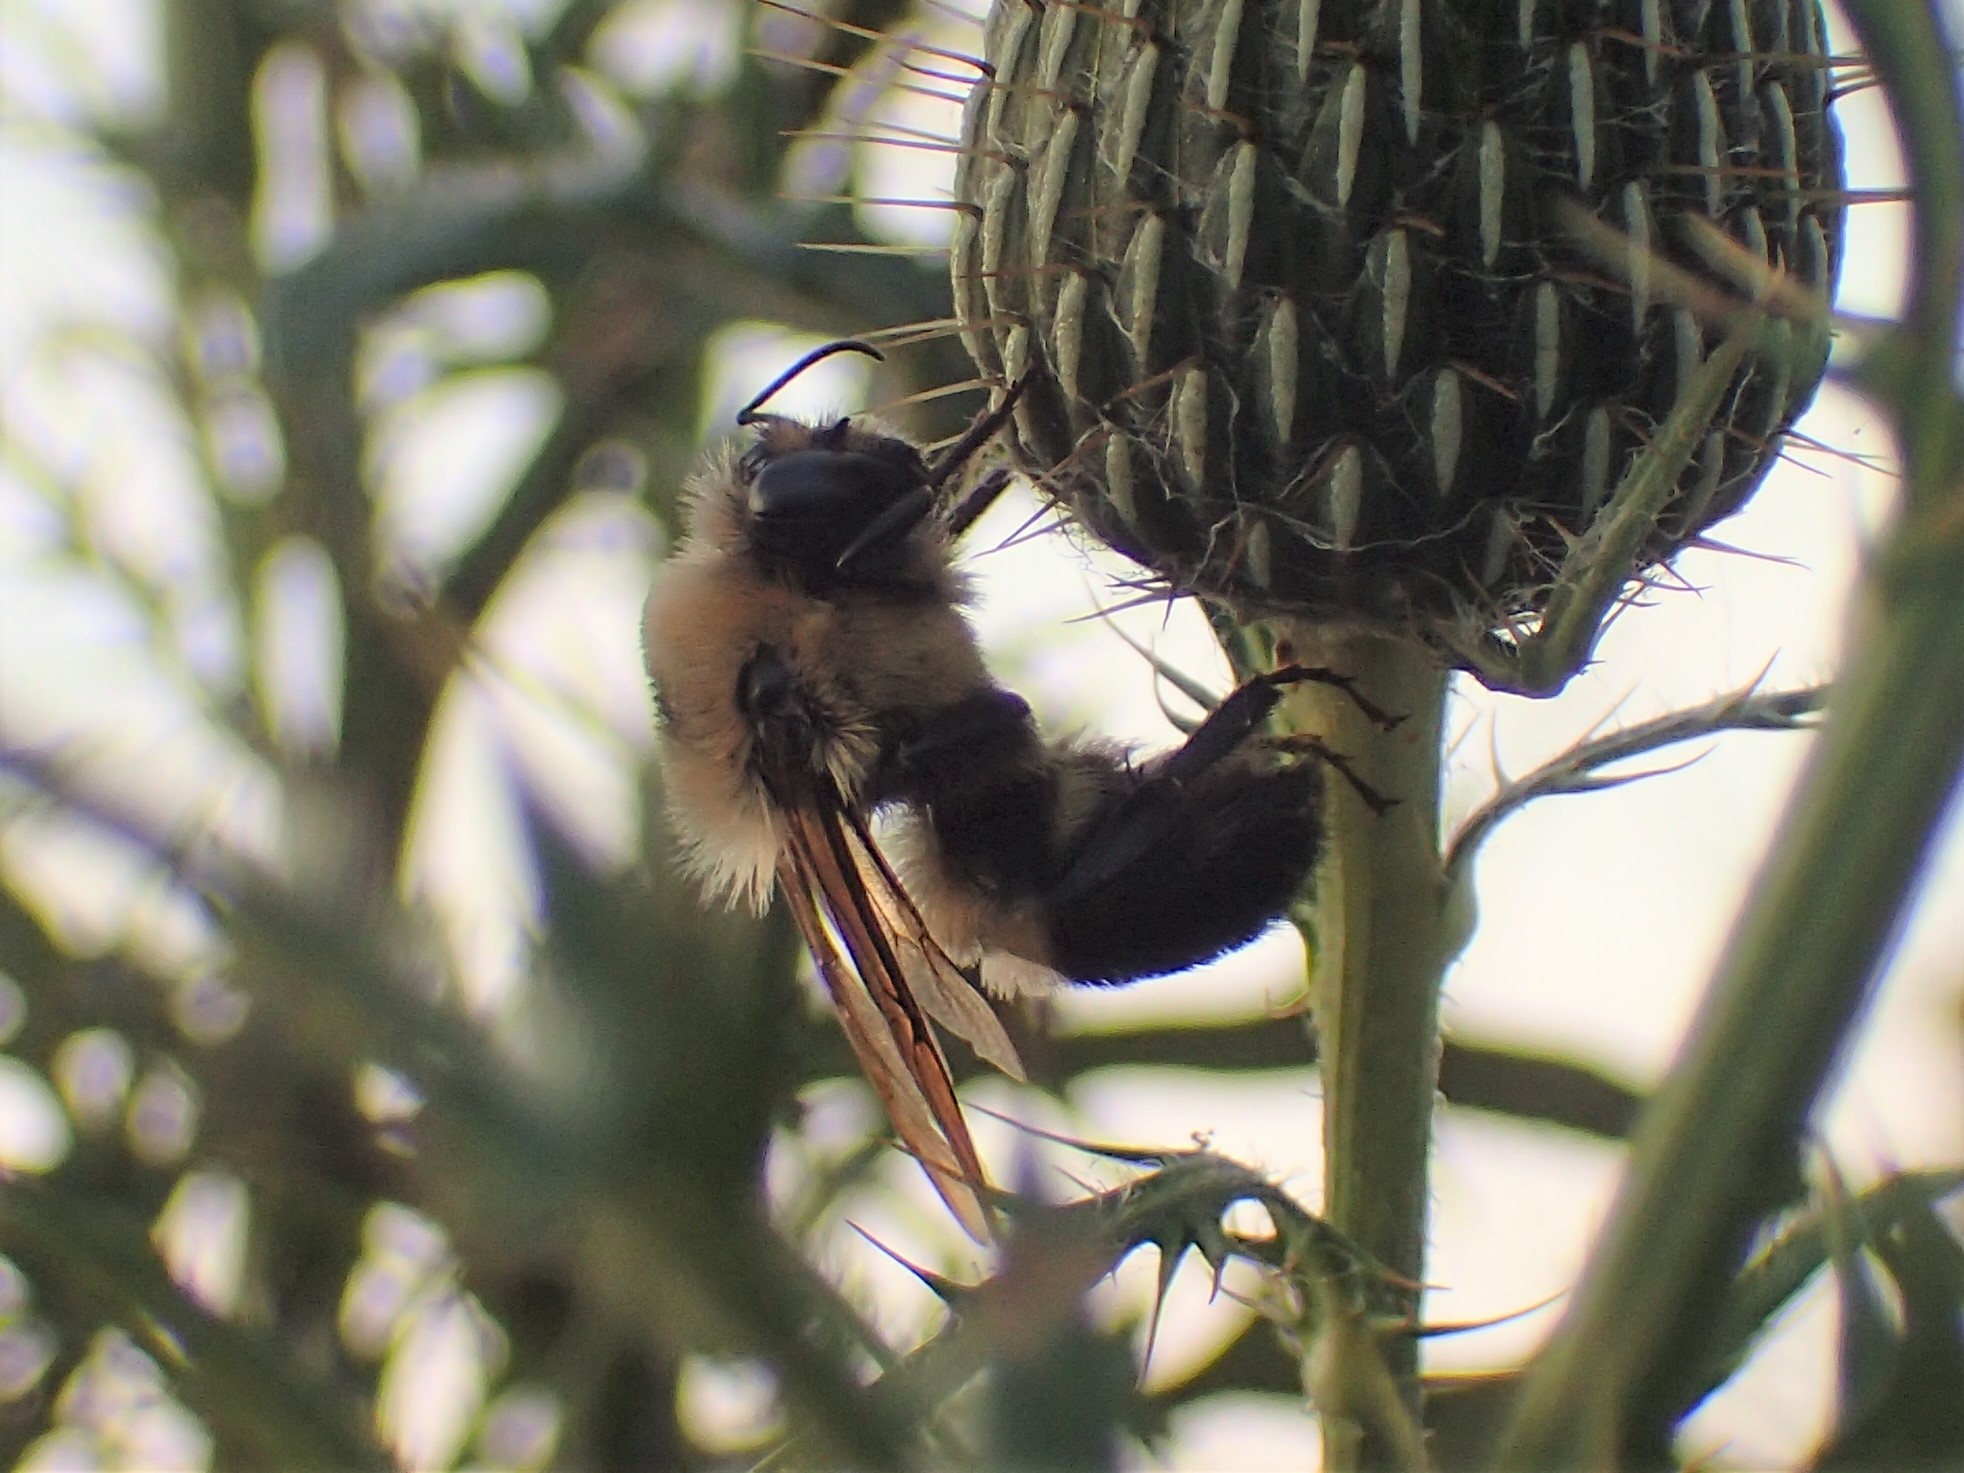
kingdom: Animalia
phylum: Arthropoda
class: Insecta
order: Hymenoptera
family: Apidae
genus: Bombus
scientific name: Bombus griseocollis
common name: Brown-belted bumble bee
